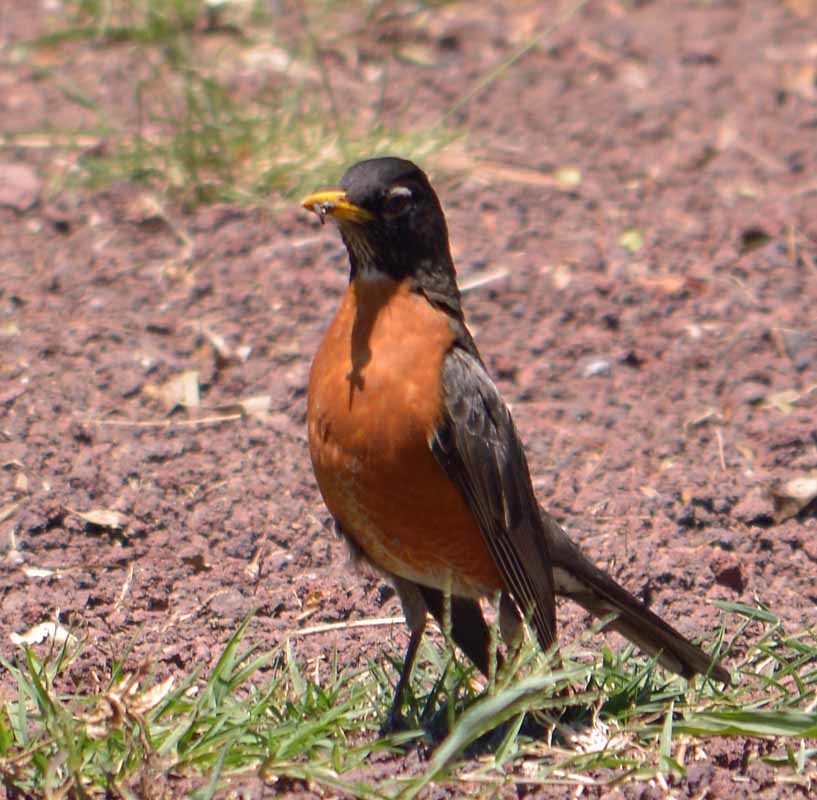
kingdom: Animalia
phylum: Chordata
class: Aves
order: Passeriformes
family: Turdidae
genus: Turdus
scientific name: Turdus migratorius
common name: American robin
